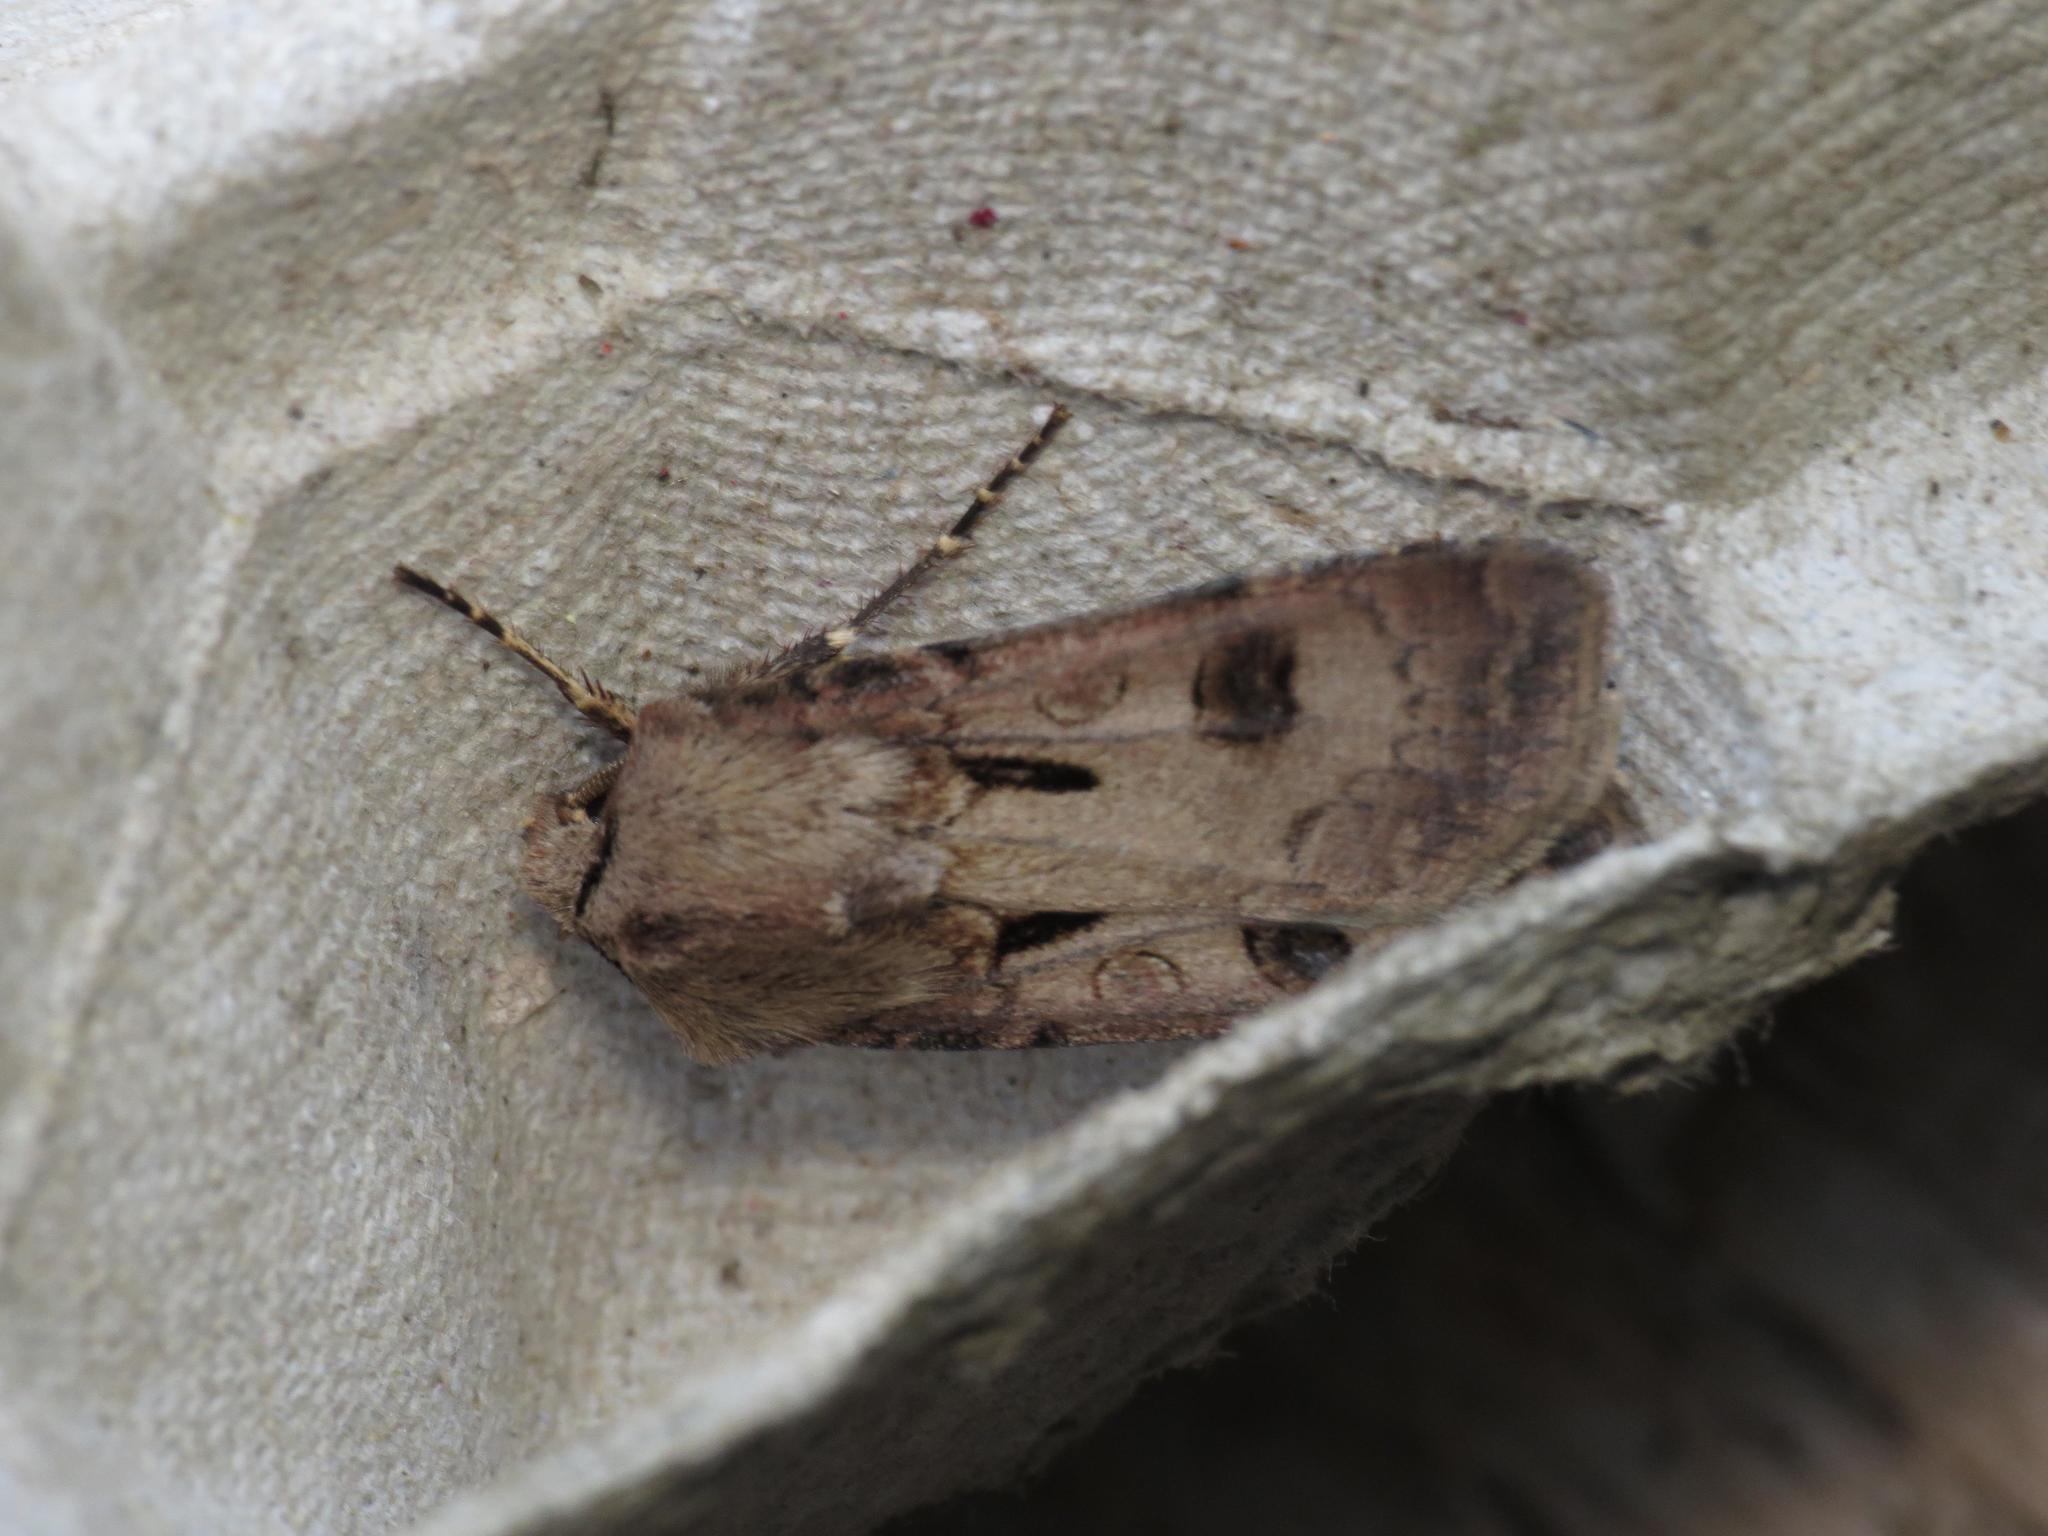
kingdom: Animalia
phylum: Arthropoda
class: Insecta
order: Lepidoptera
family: Noctuidae
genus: Agrotis
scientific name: Agrotis exclamationis
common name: Heart and dart
